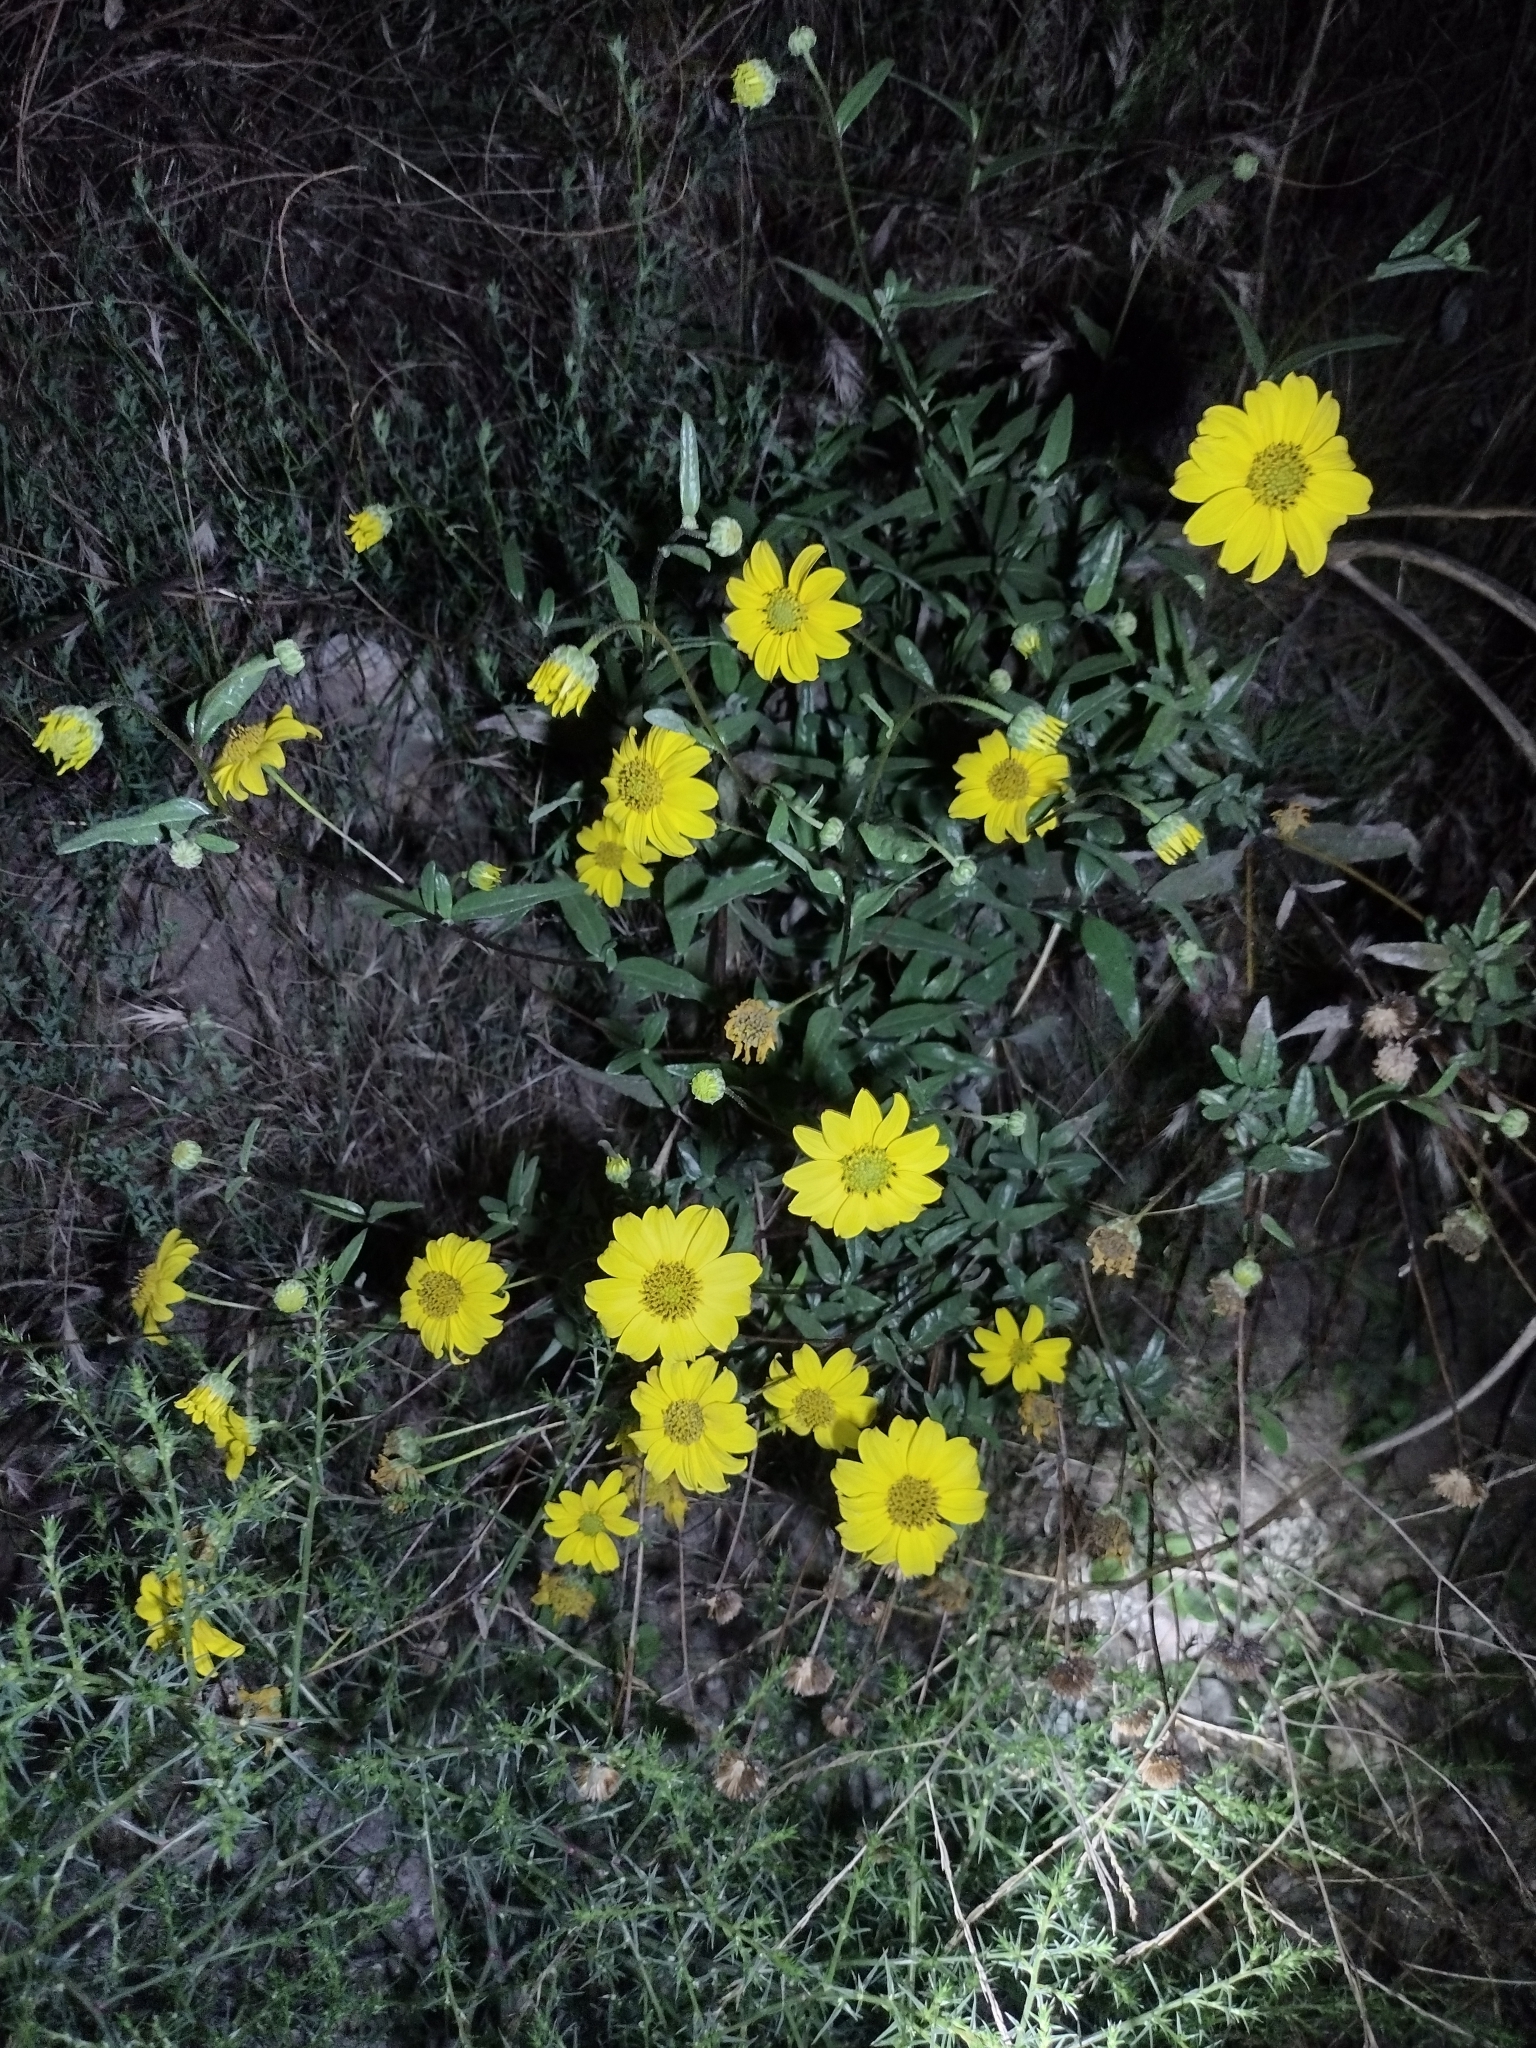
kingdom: Plantae
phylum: Tracheophyta
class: Magnoliopsida
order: Asterales
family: Asteraceae
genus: Helianthus
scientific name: Helianthus gracilentus
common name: Slender sunflower
